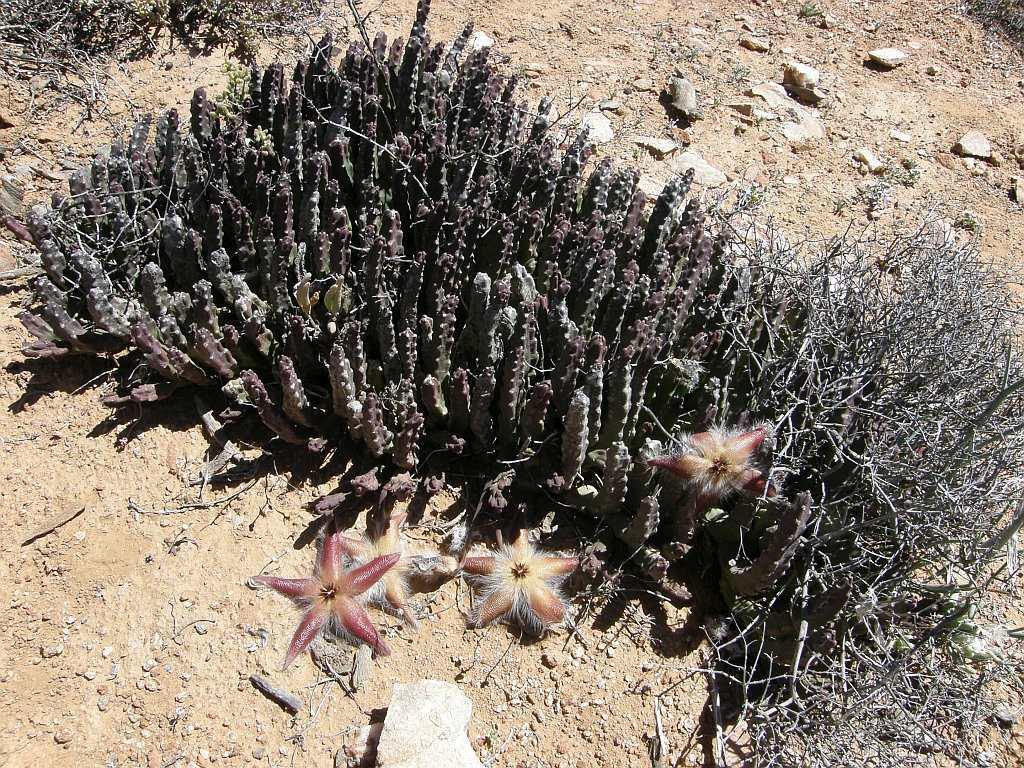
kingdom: Plantae
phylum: Tracheophyta
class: Magnoliopsida
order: Gentianales
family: Apocynaceae
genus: Ceropegia
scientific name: Ceropegia pulvinata
